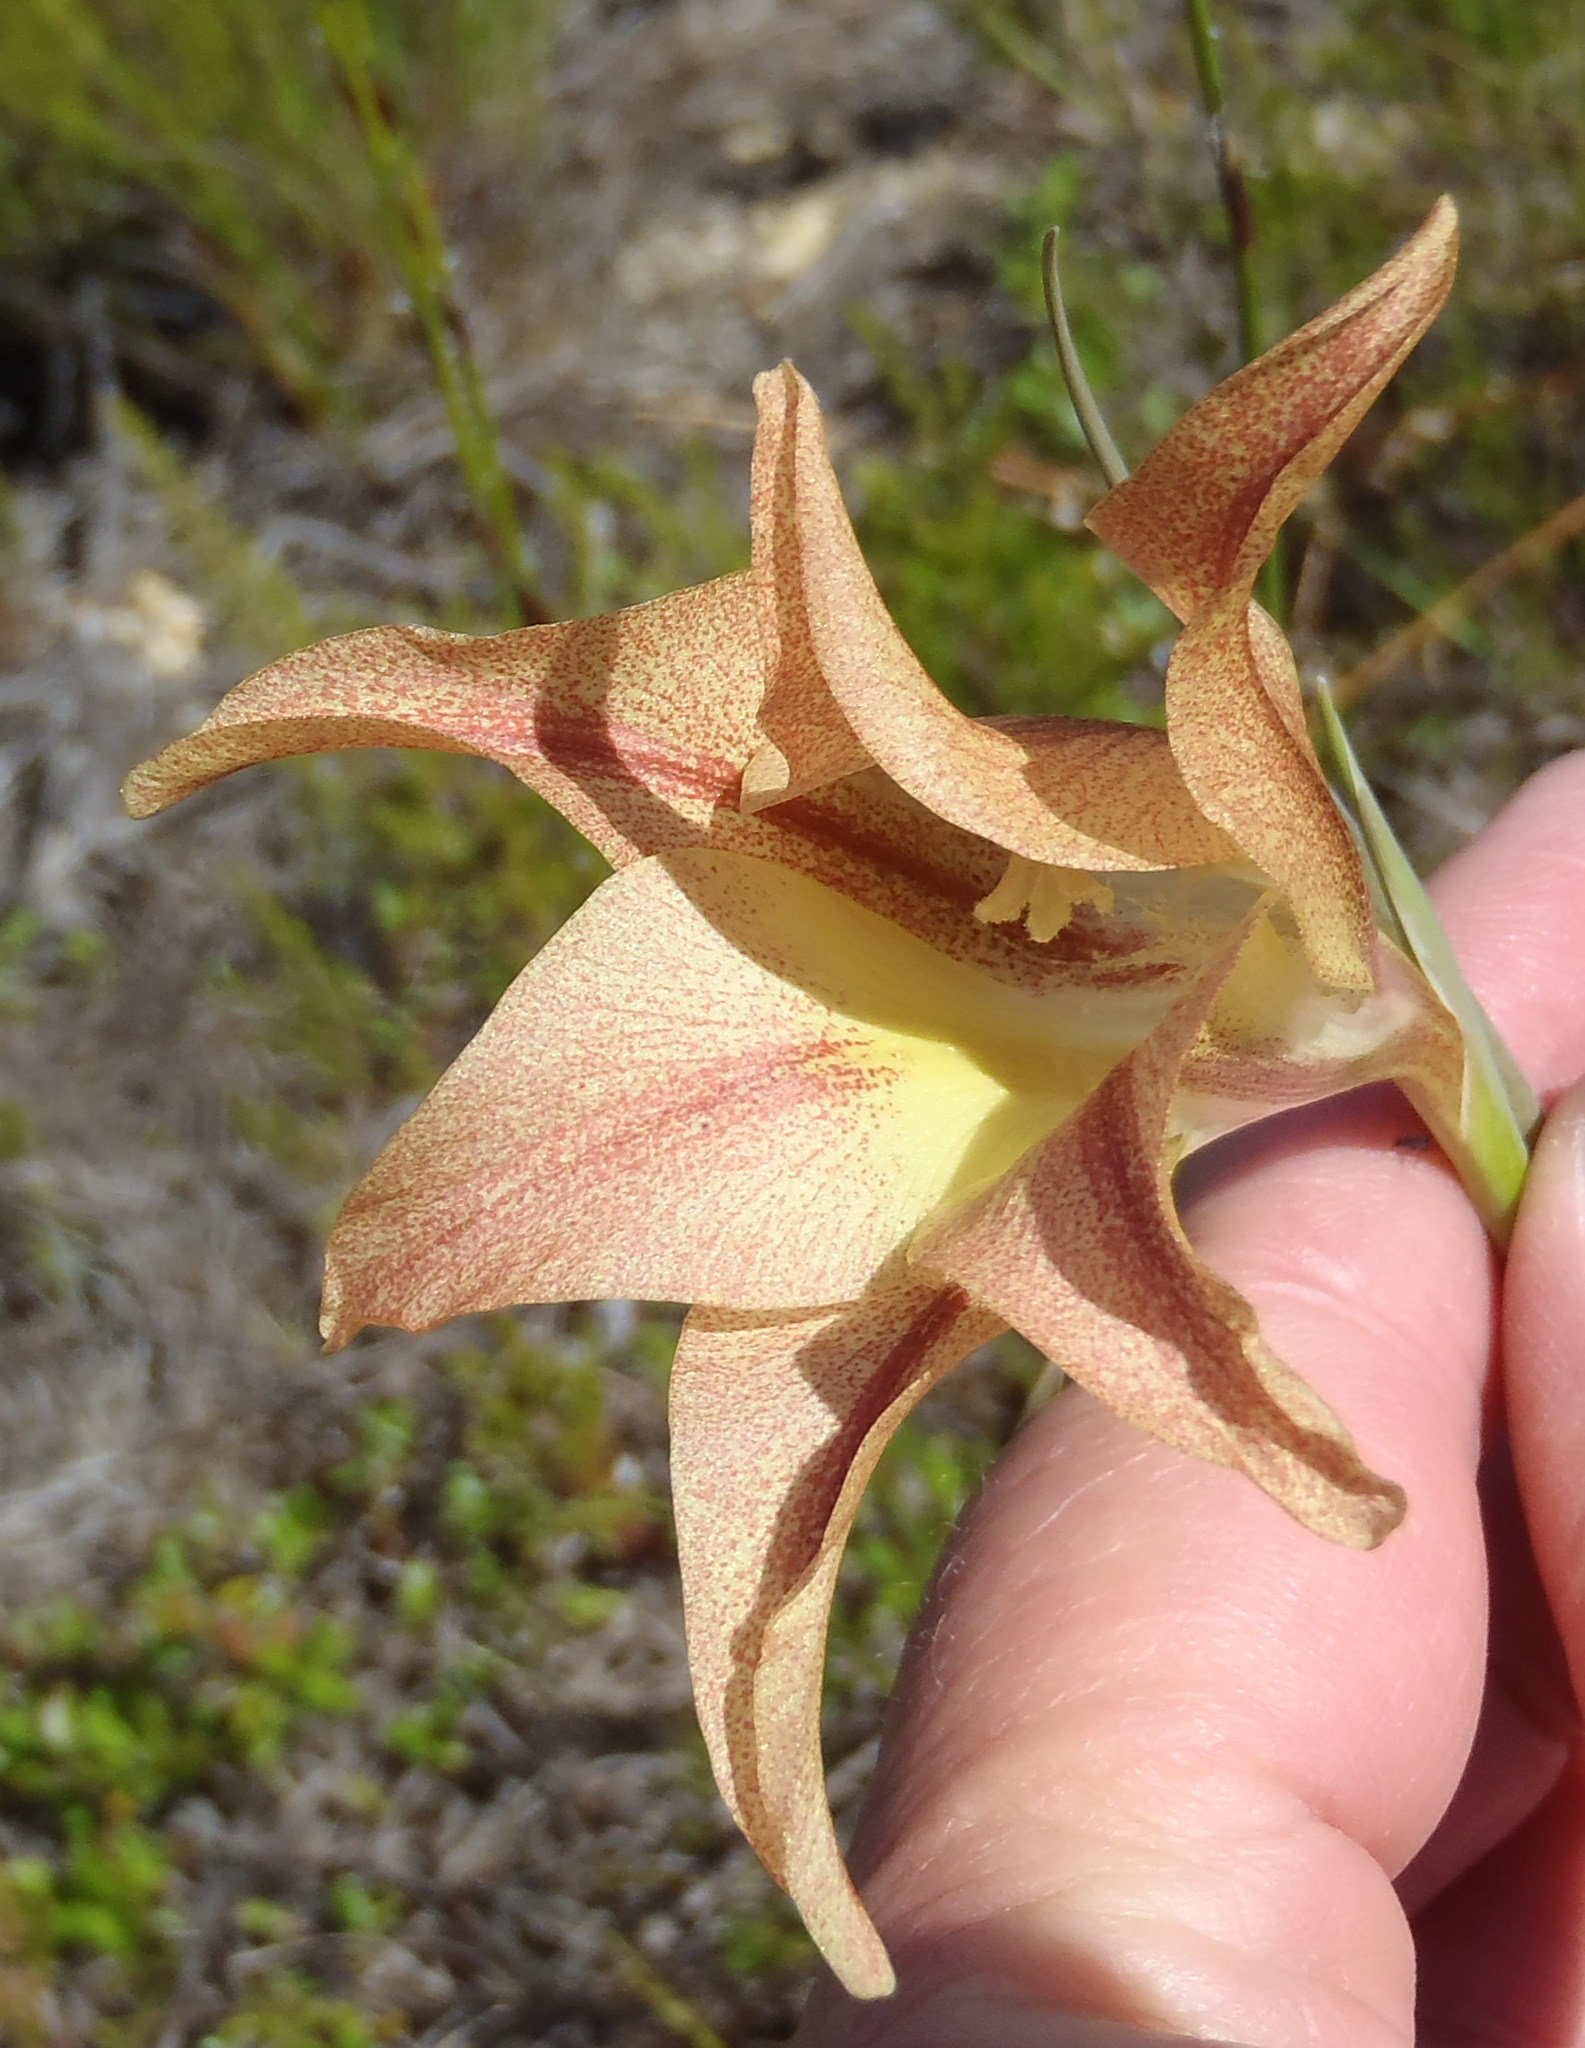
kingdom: Plantae
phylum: Tracheophyta
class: Liliopsida
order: Asparagales
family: Iridaceae
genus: Gladiolus
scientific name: Gladiolus liliaceus
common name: Large brown afrikaner
